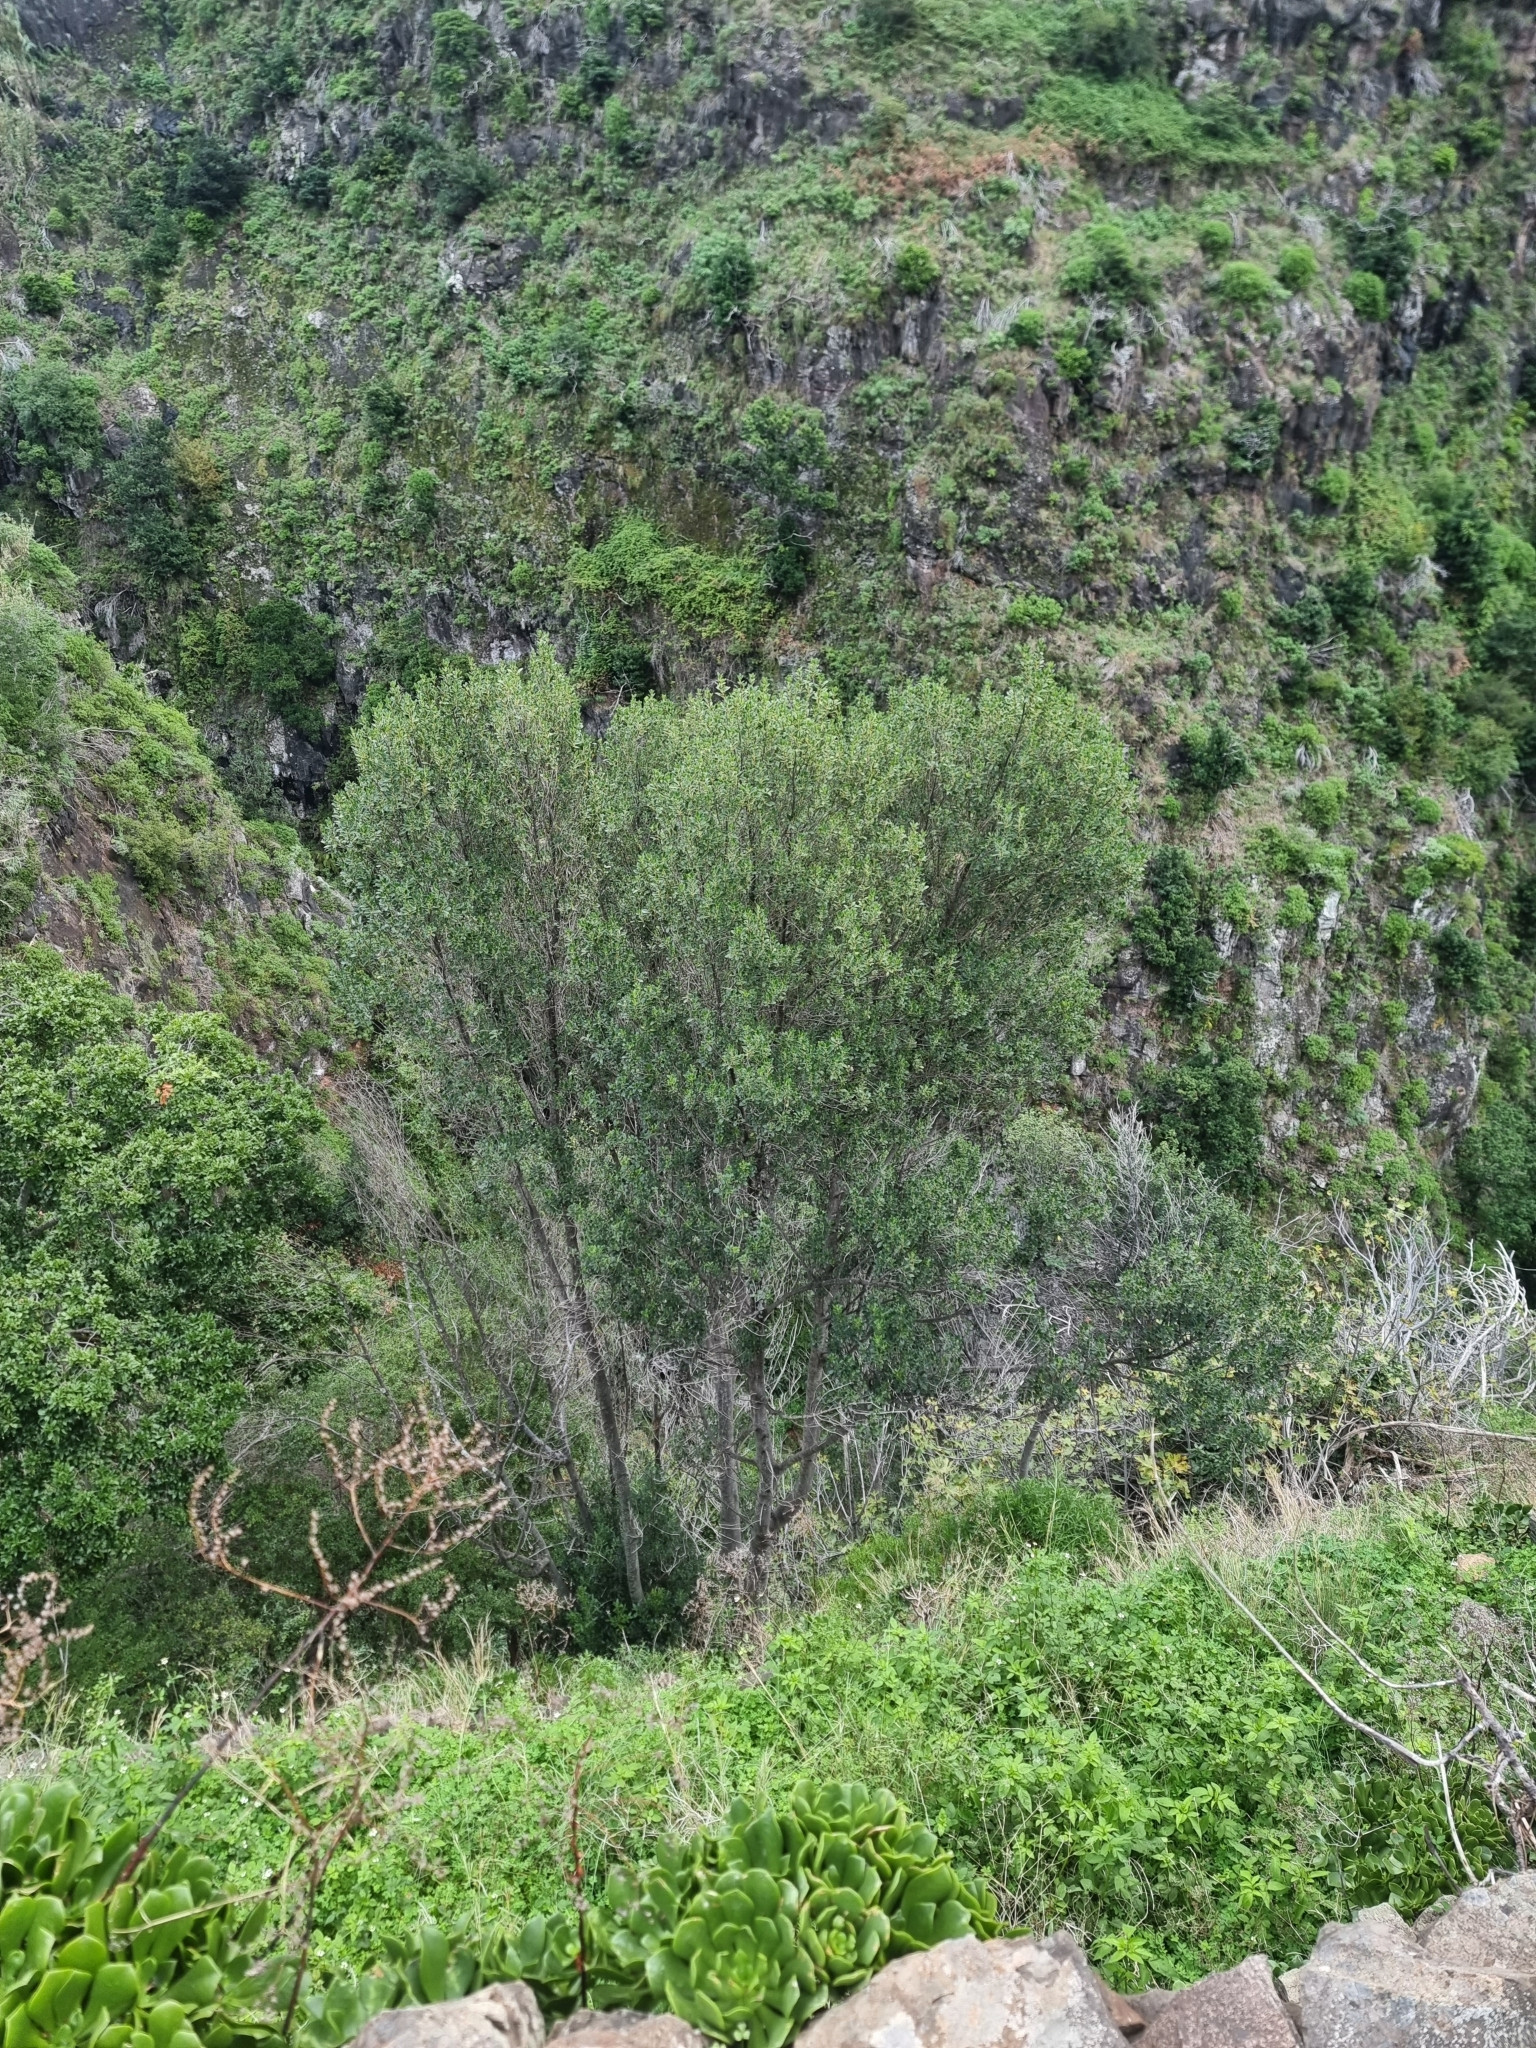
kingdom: Plantae
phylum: Tracheophyta
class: Magnoliopsida
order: Aquifoliales
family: Aquifoliaceae
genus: Ilex
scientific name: Ilex canariensis
